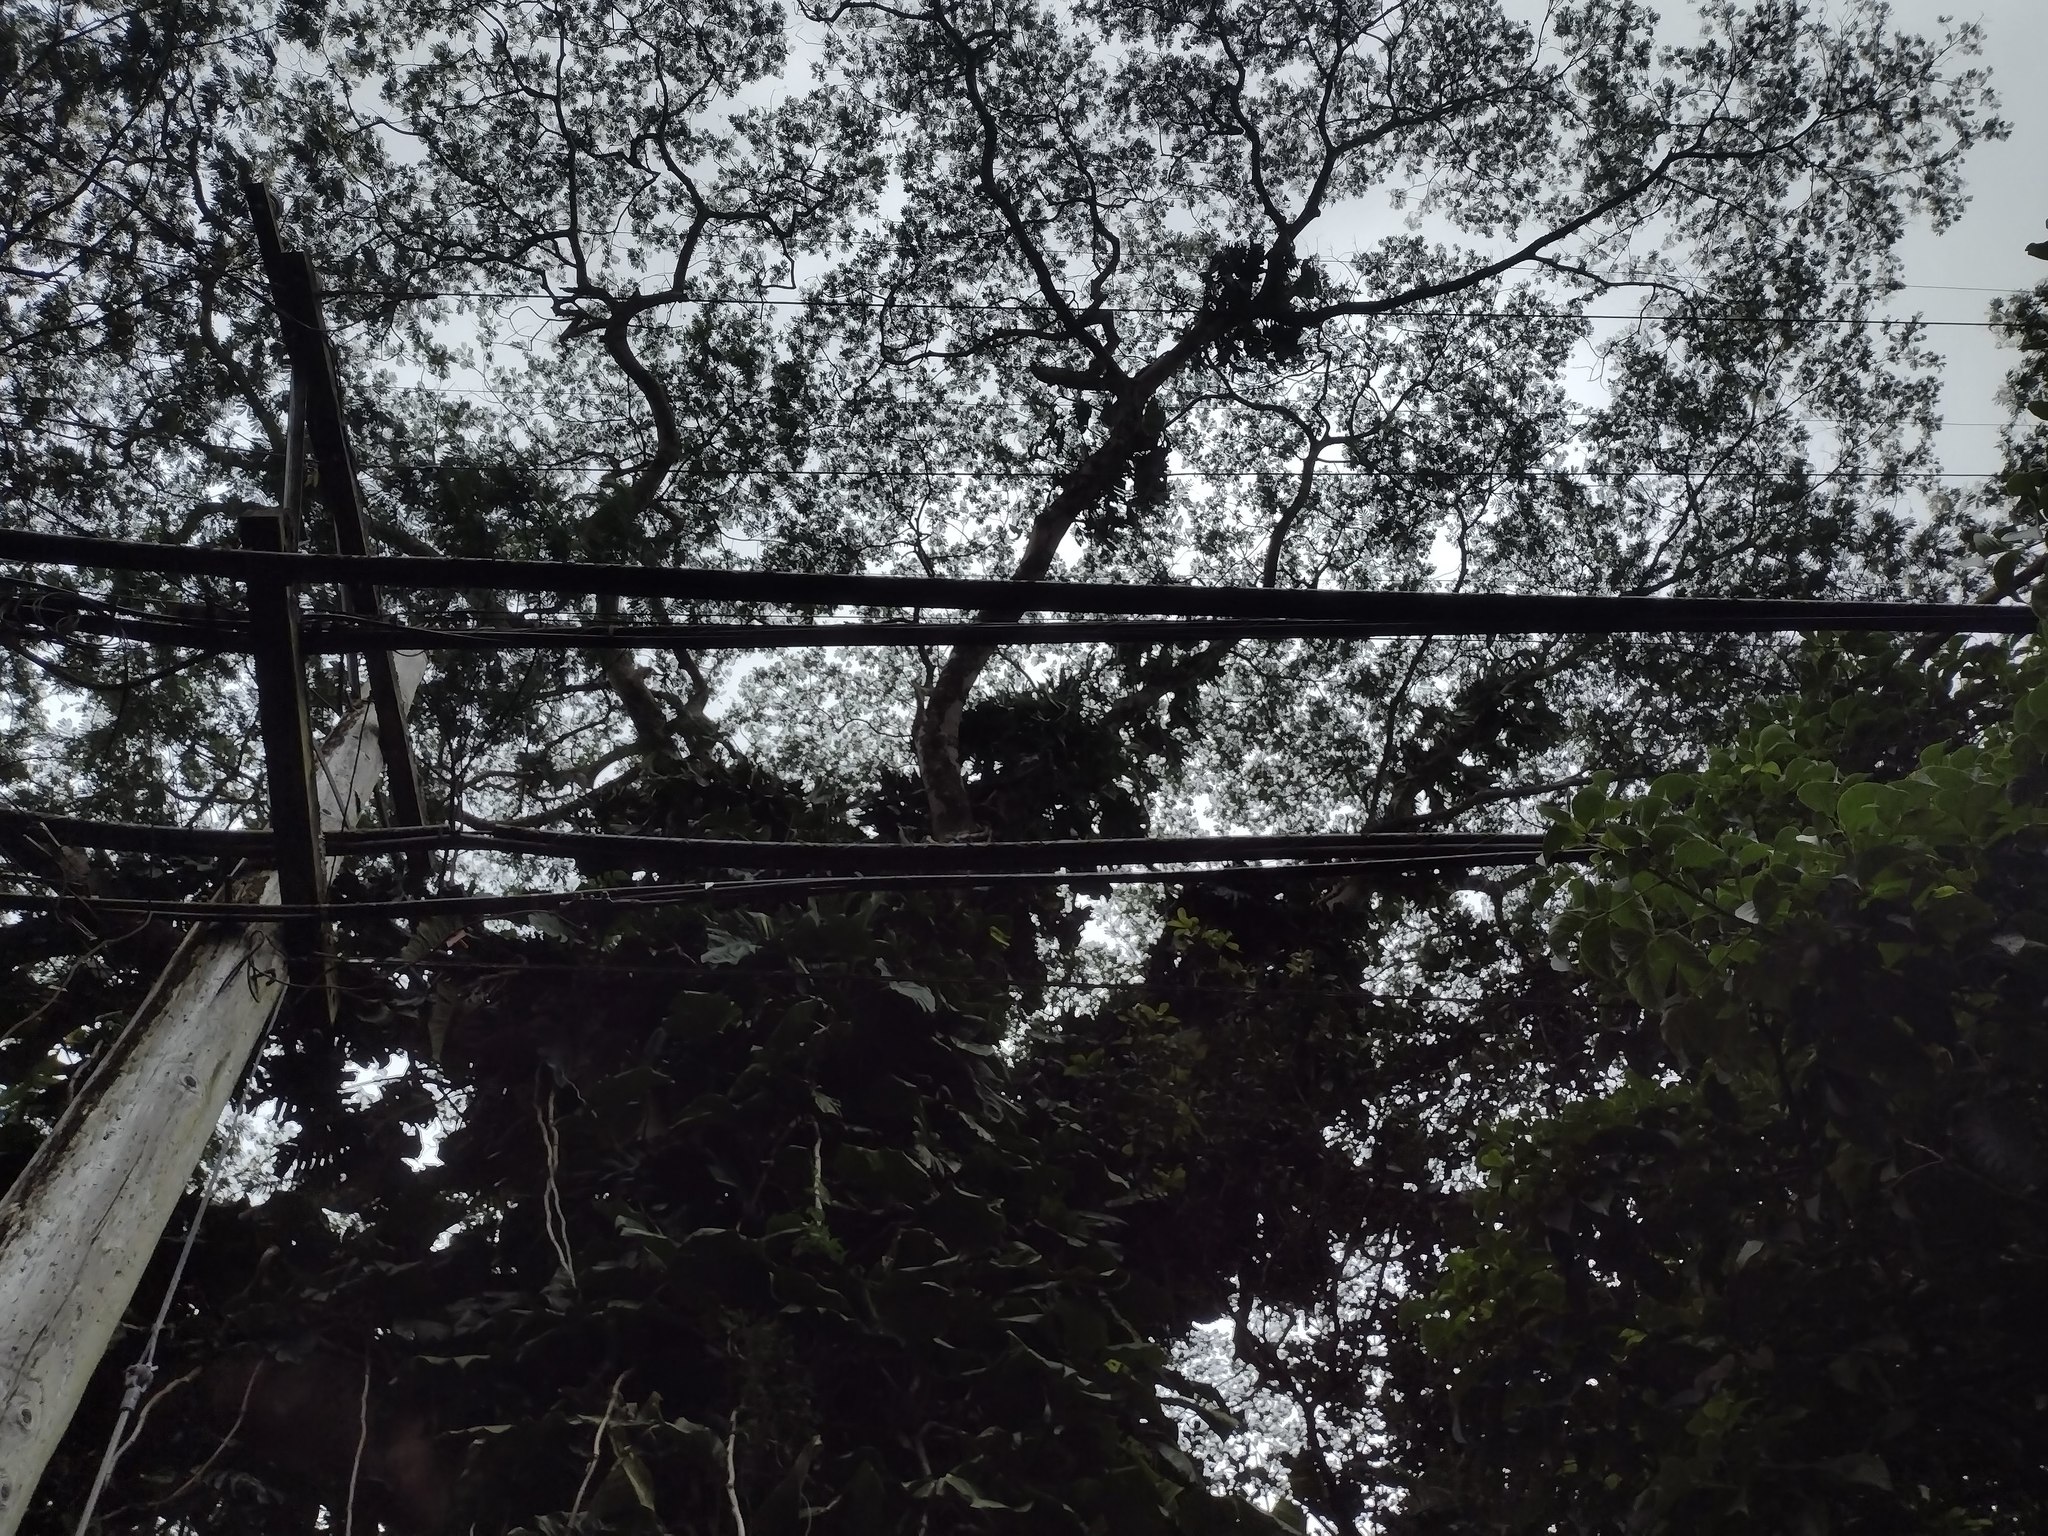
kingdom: Plantae
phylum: Tracheophyta
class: Magnoliopsida
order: Fabales
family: Fabaceae
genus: Falcataria
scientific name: Falcataria falcata
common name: Moluccan albizia
